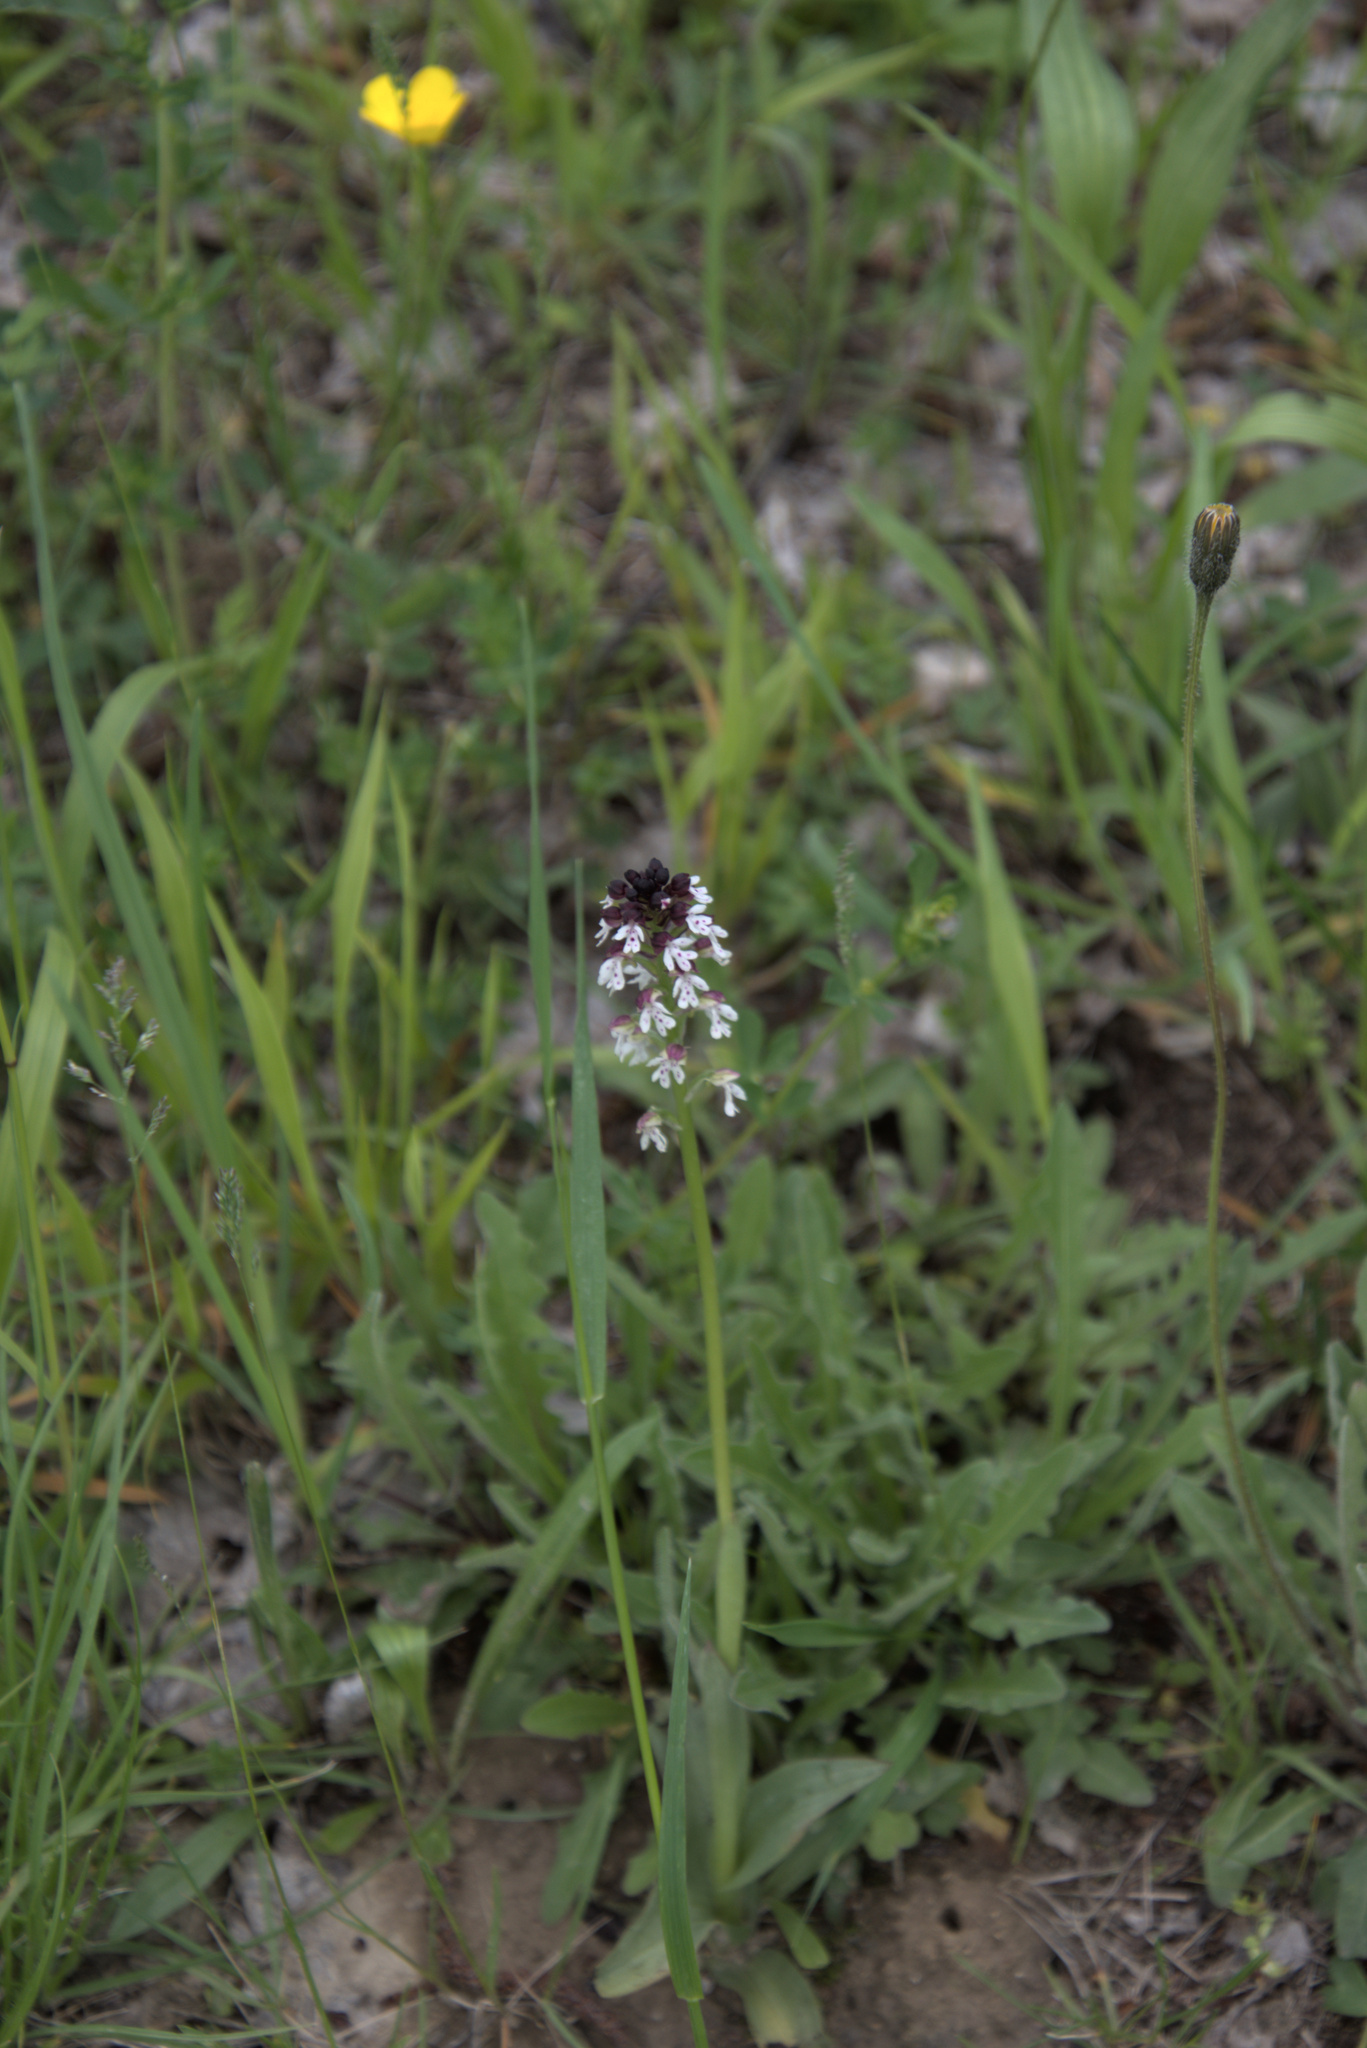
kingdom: Plantae
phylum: Tracheophyta
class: Liliopsida
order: Asparagales
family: Orchidaceae
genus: Neotinea
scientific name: Neotinea ustulata
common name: Burnt orchid
